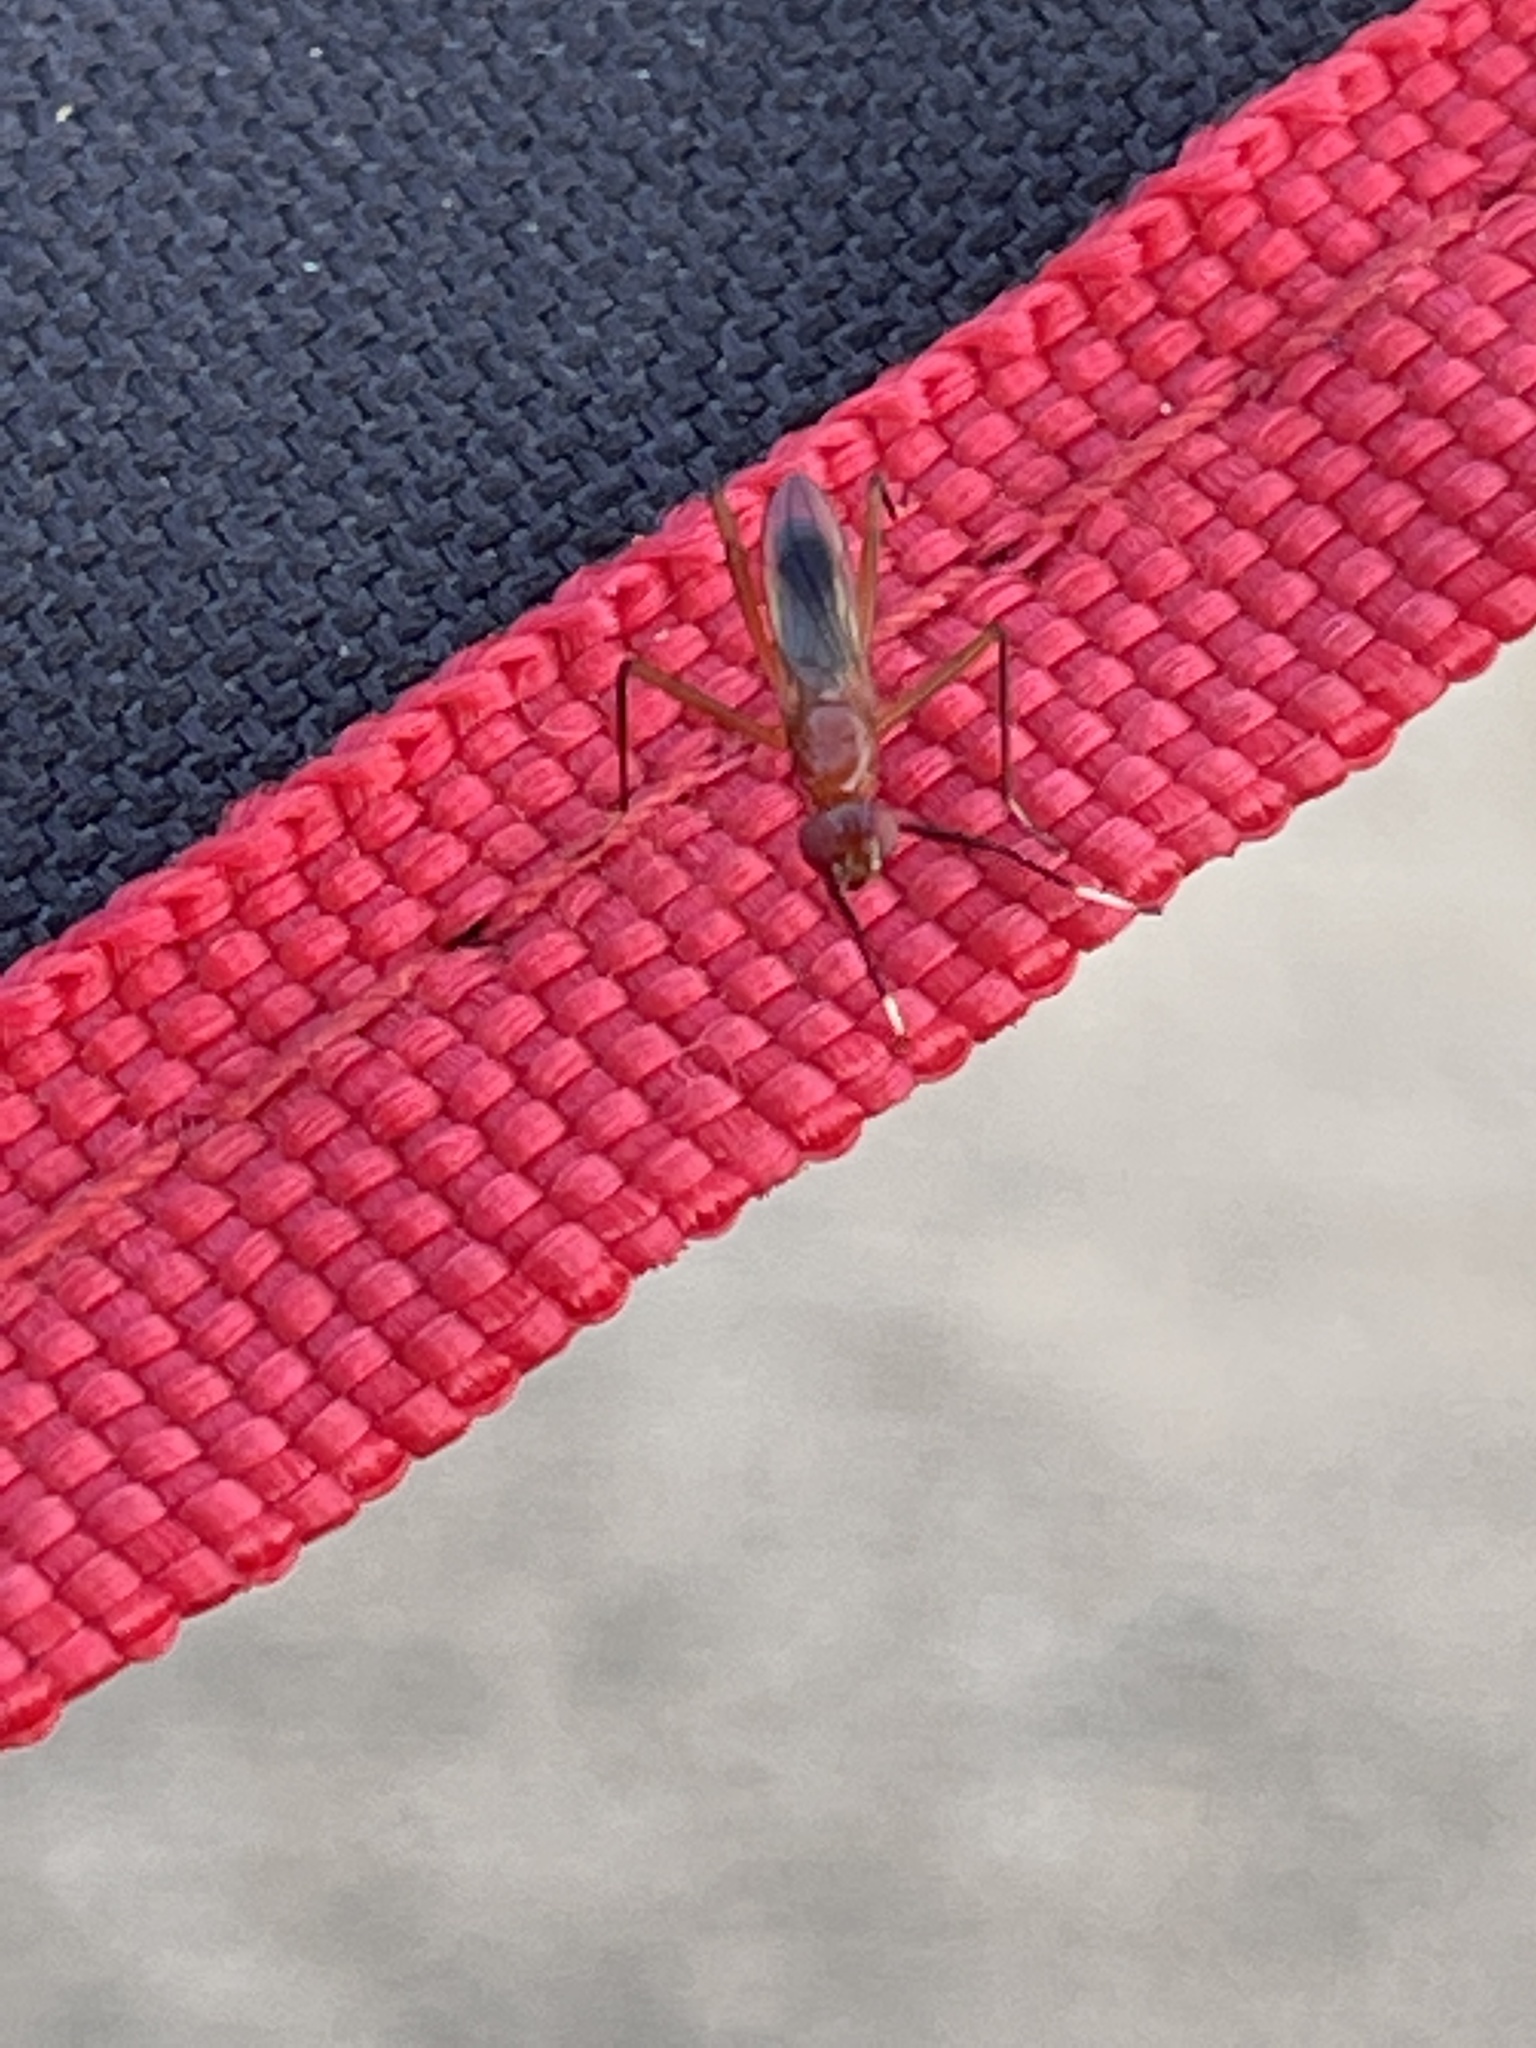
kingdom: Animalia
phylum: Arthropoda
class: Insecta
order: Diptera
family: Micropezidae
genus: Grallipeza
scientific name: Grallipeza nebulosa
